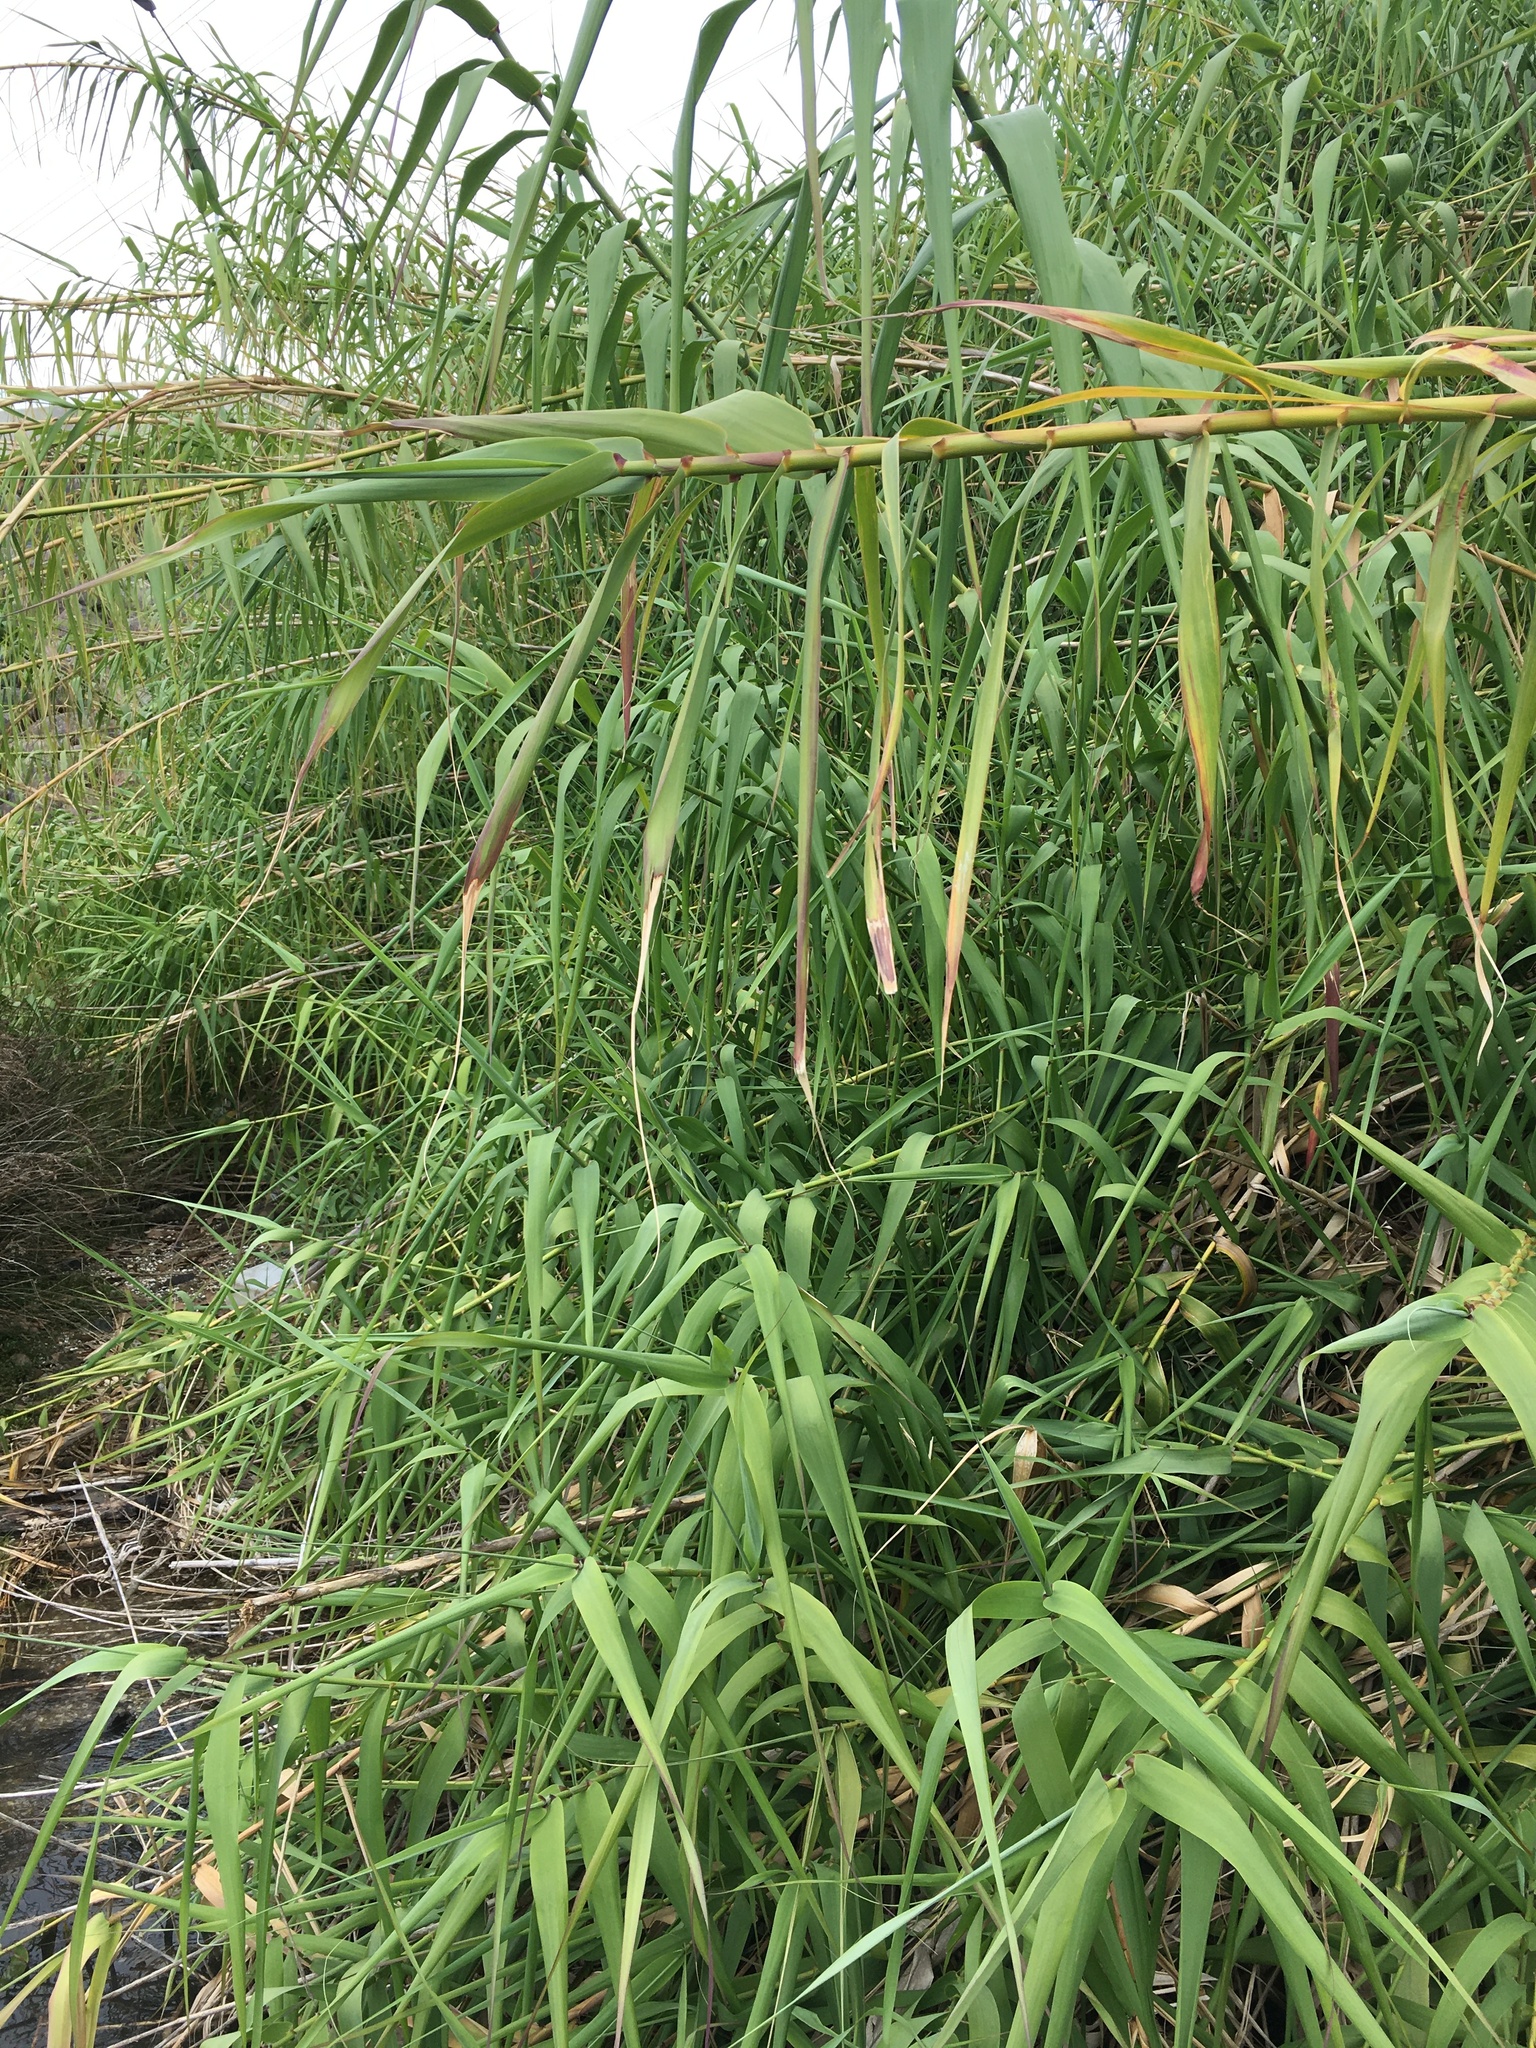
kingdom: Plantae
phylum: Tracheophyta
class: Liliopsida
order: Poales
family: Poaceae
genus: Arundo
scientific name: Arundo donax
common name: Giant reed
